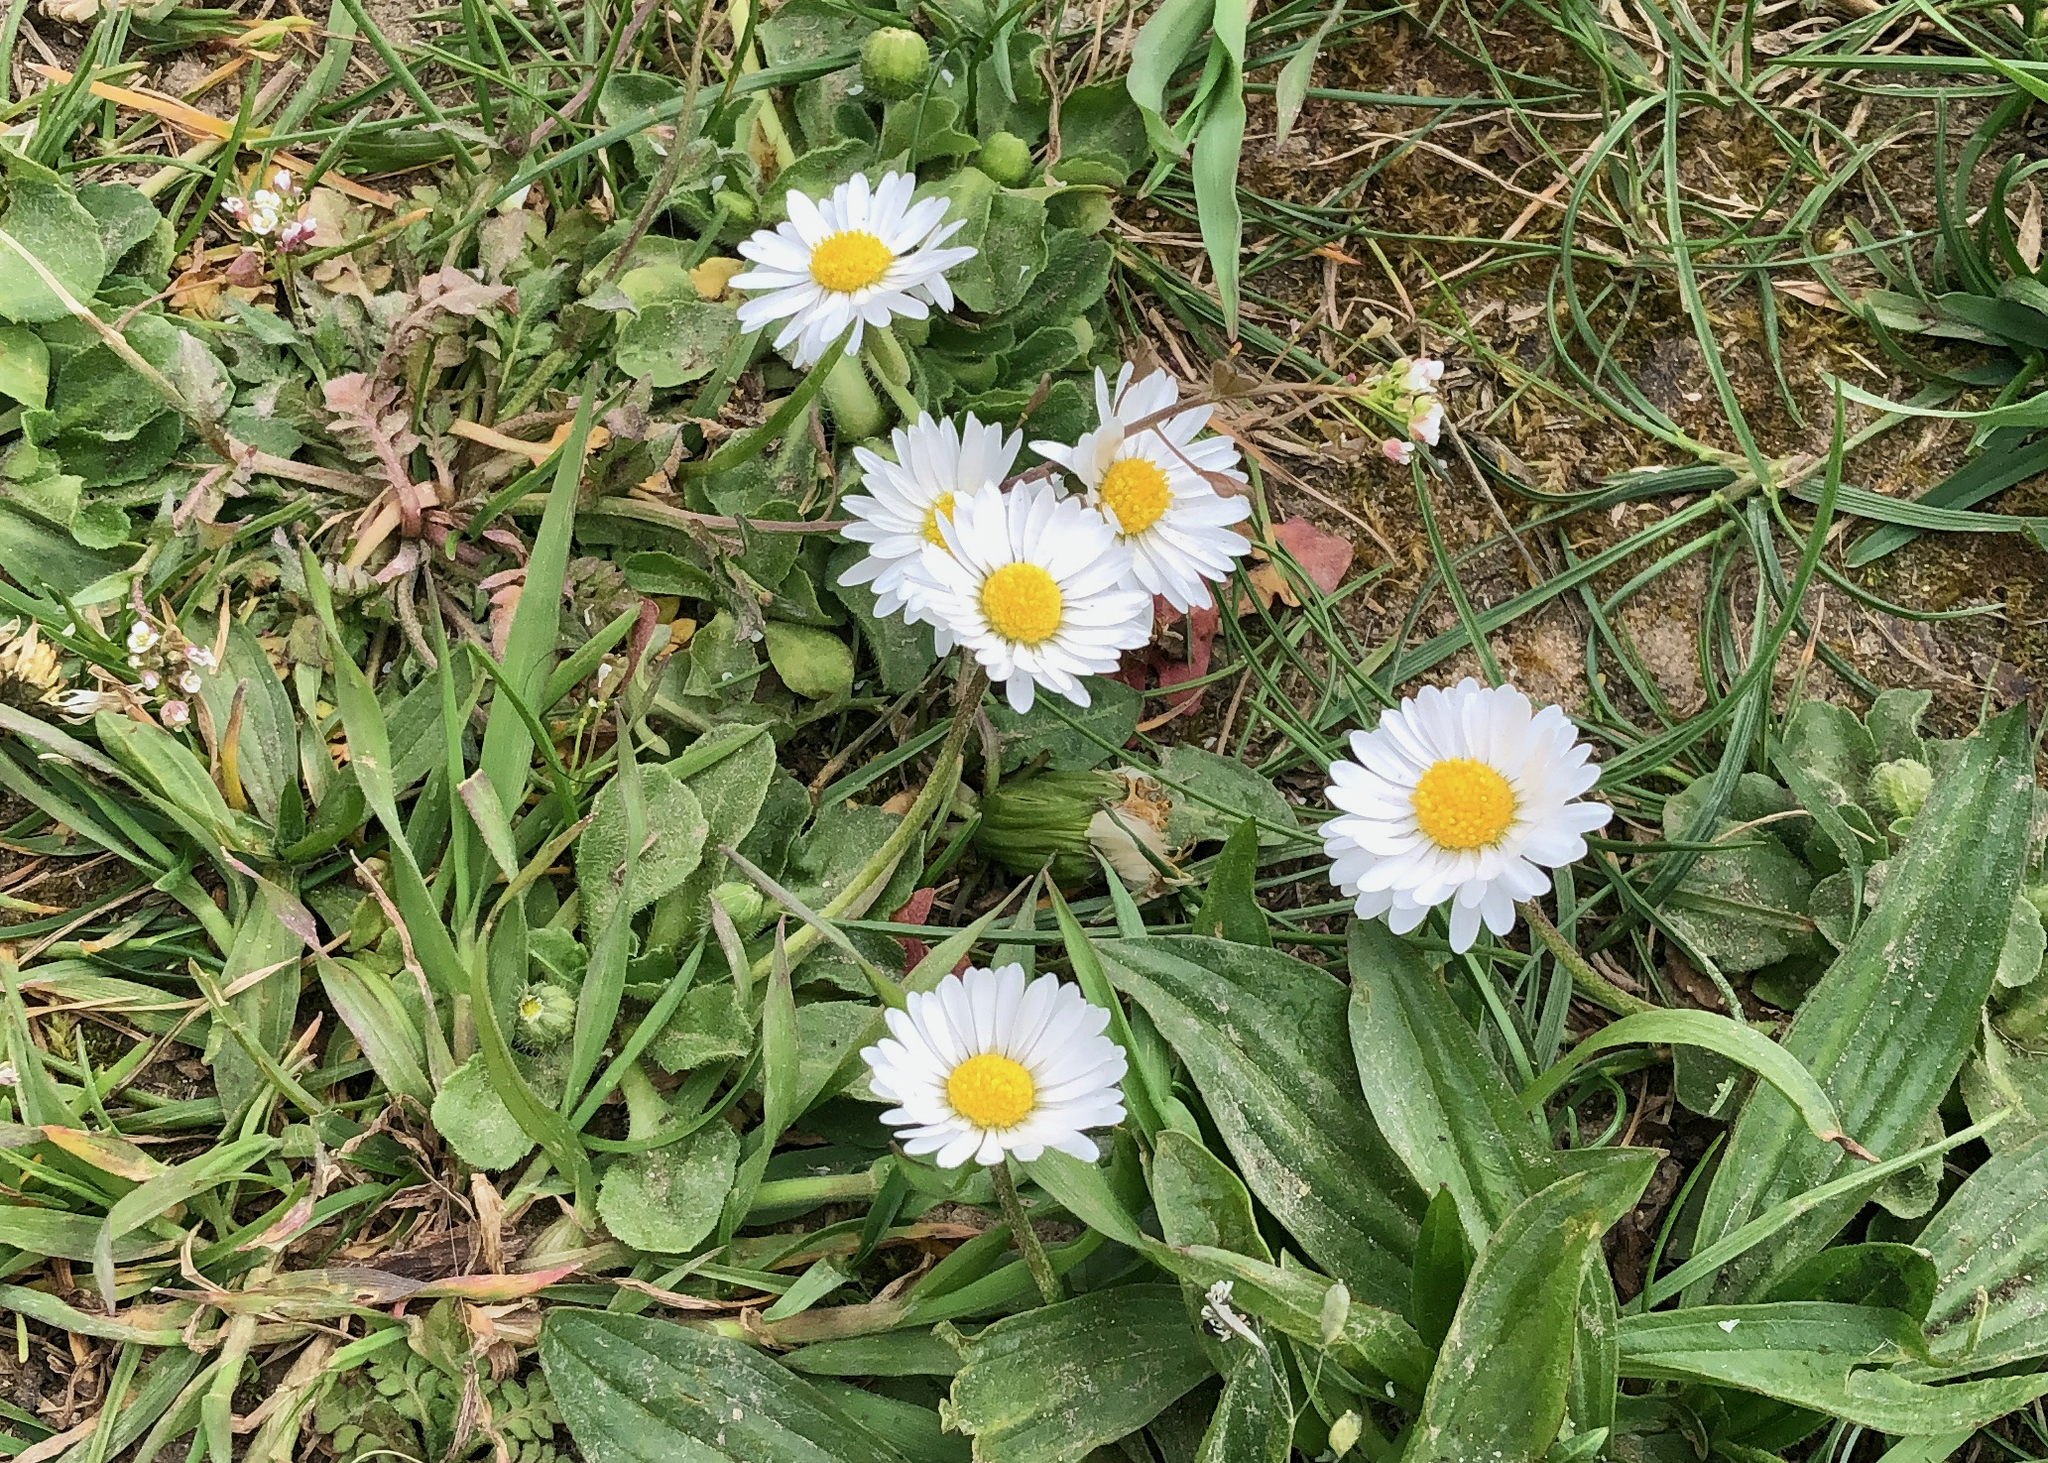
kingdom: Plantae
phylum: Tracheophyta
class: Magnoliopsida
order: Asterales
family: Asteraceae
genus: Bellis
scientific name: Bellis perennis
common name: Lawndaisy
